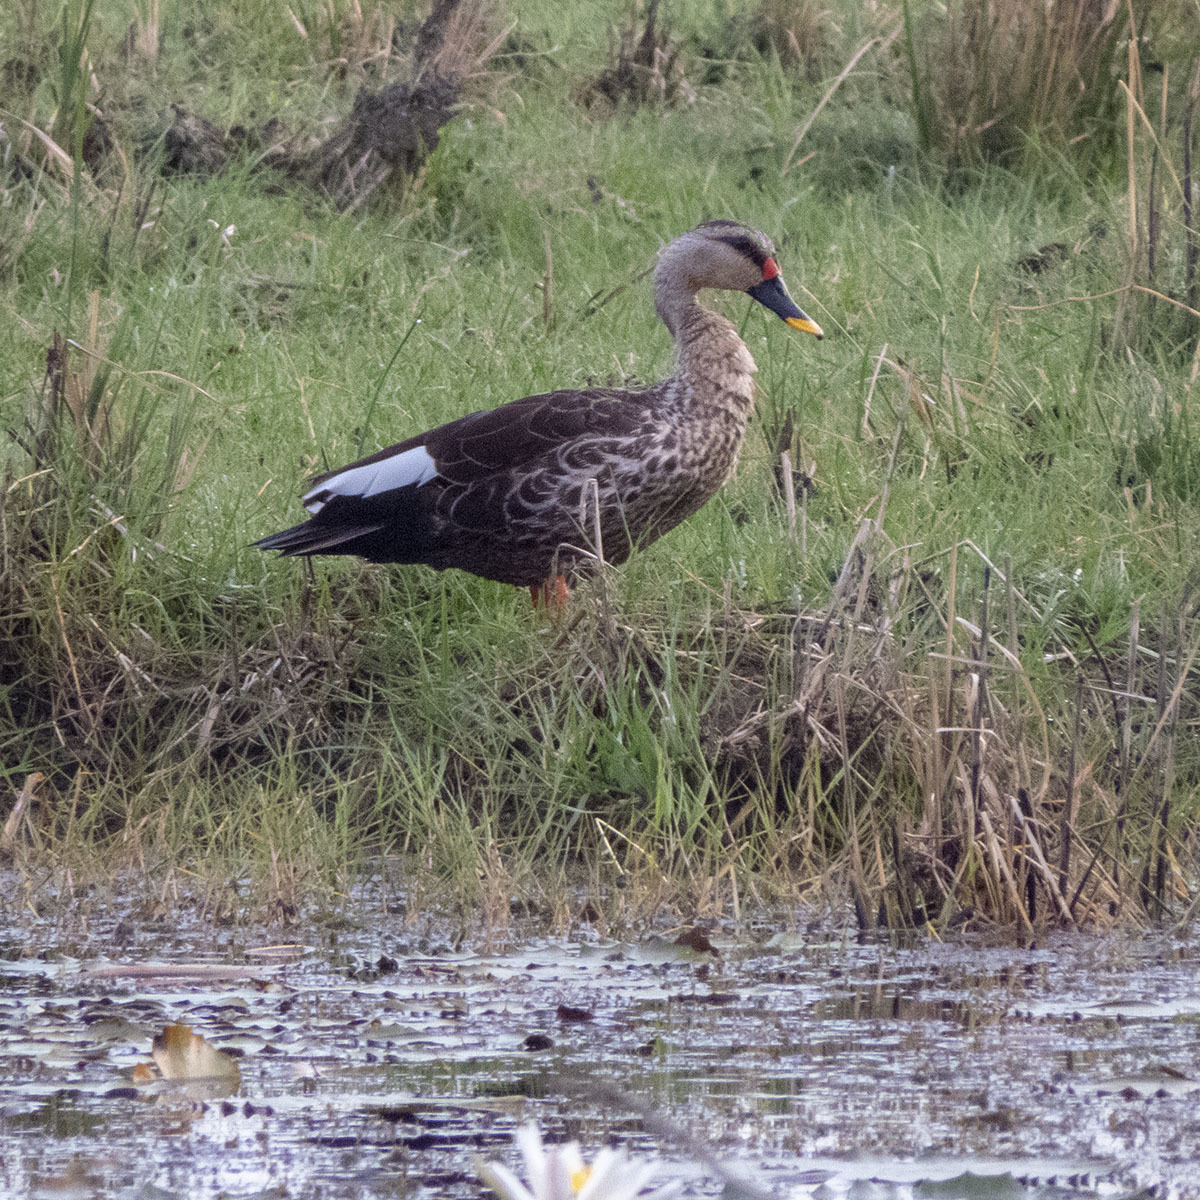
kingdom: Animalia
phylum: Chordata
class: Aves
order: Anseriformes
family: Anatidae
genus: Anas
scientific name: Anas poecilorhyncha
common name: Indian spot-billed duck
